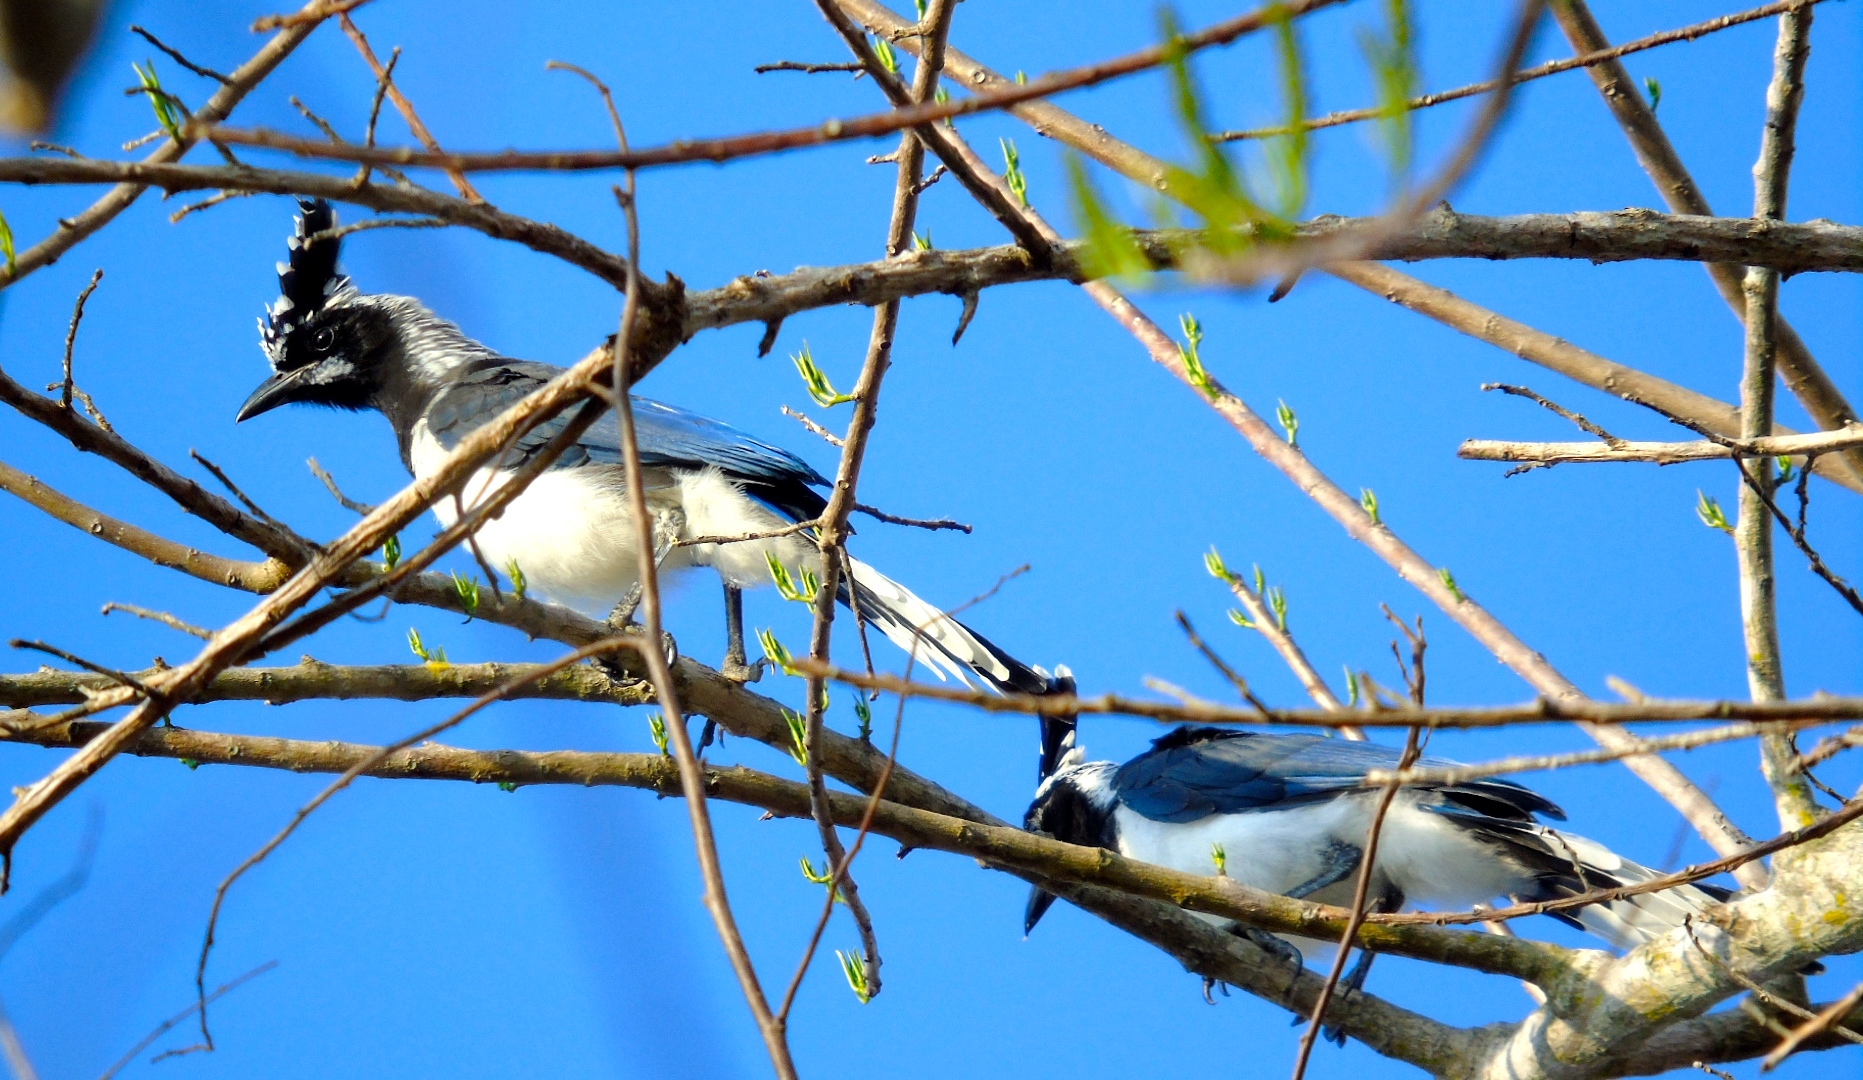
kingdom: Animalia
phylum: Chordata
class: Aves
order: Passeriformes
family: Corvidae
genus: Calocitta
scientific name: Calocitta colliei
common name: Black-throated magpie-jay
